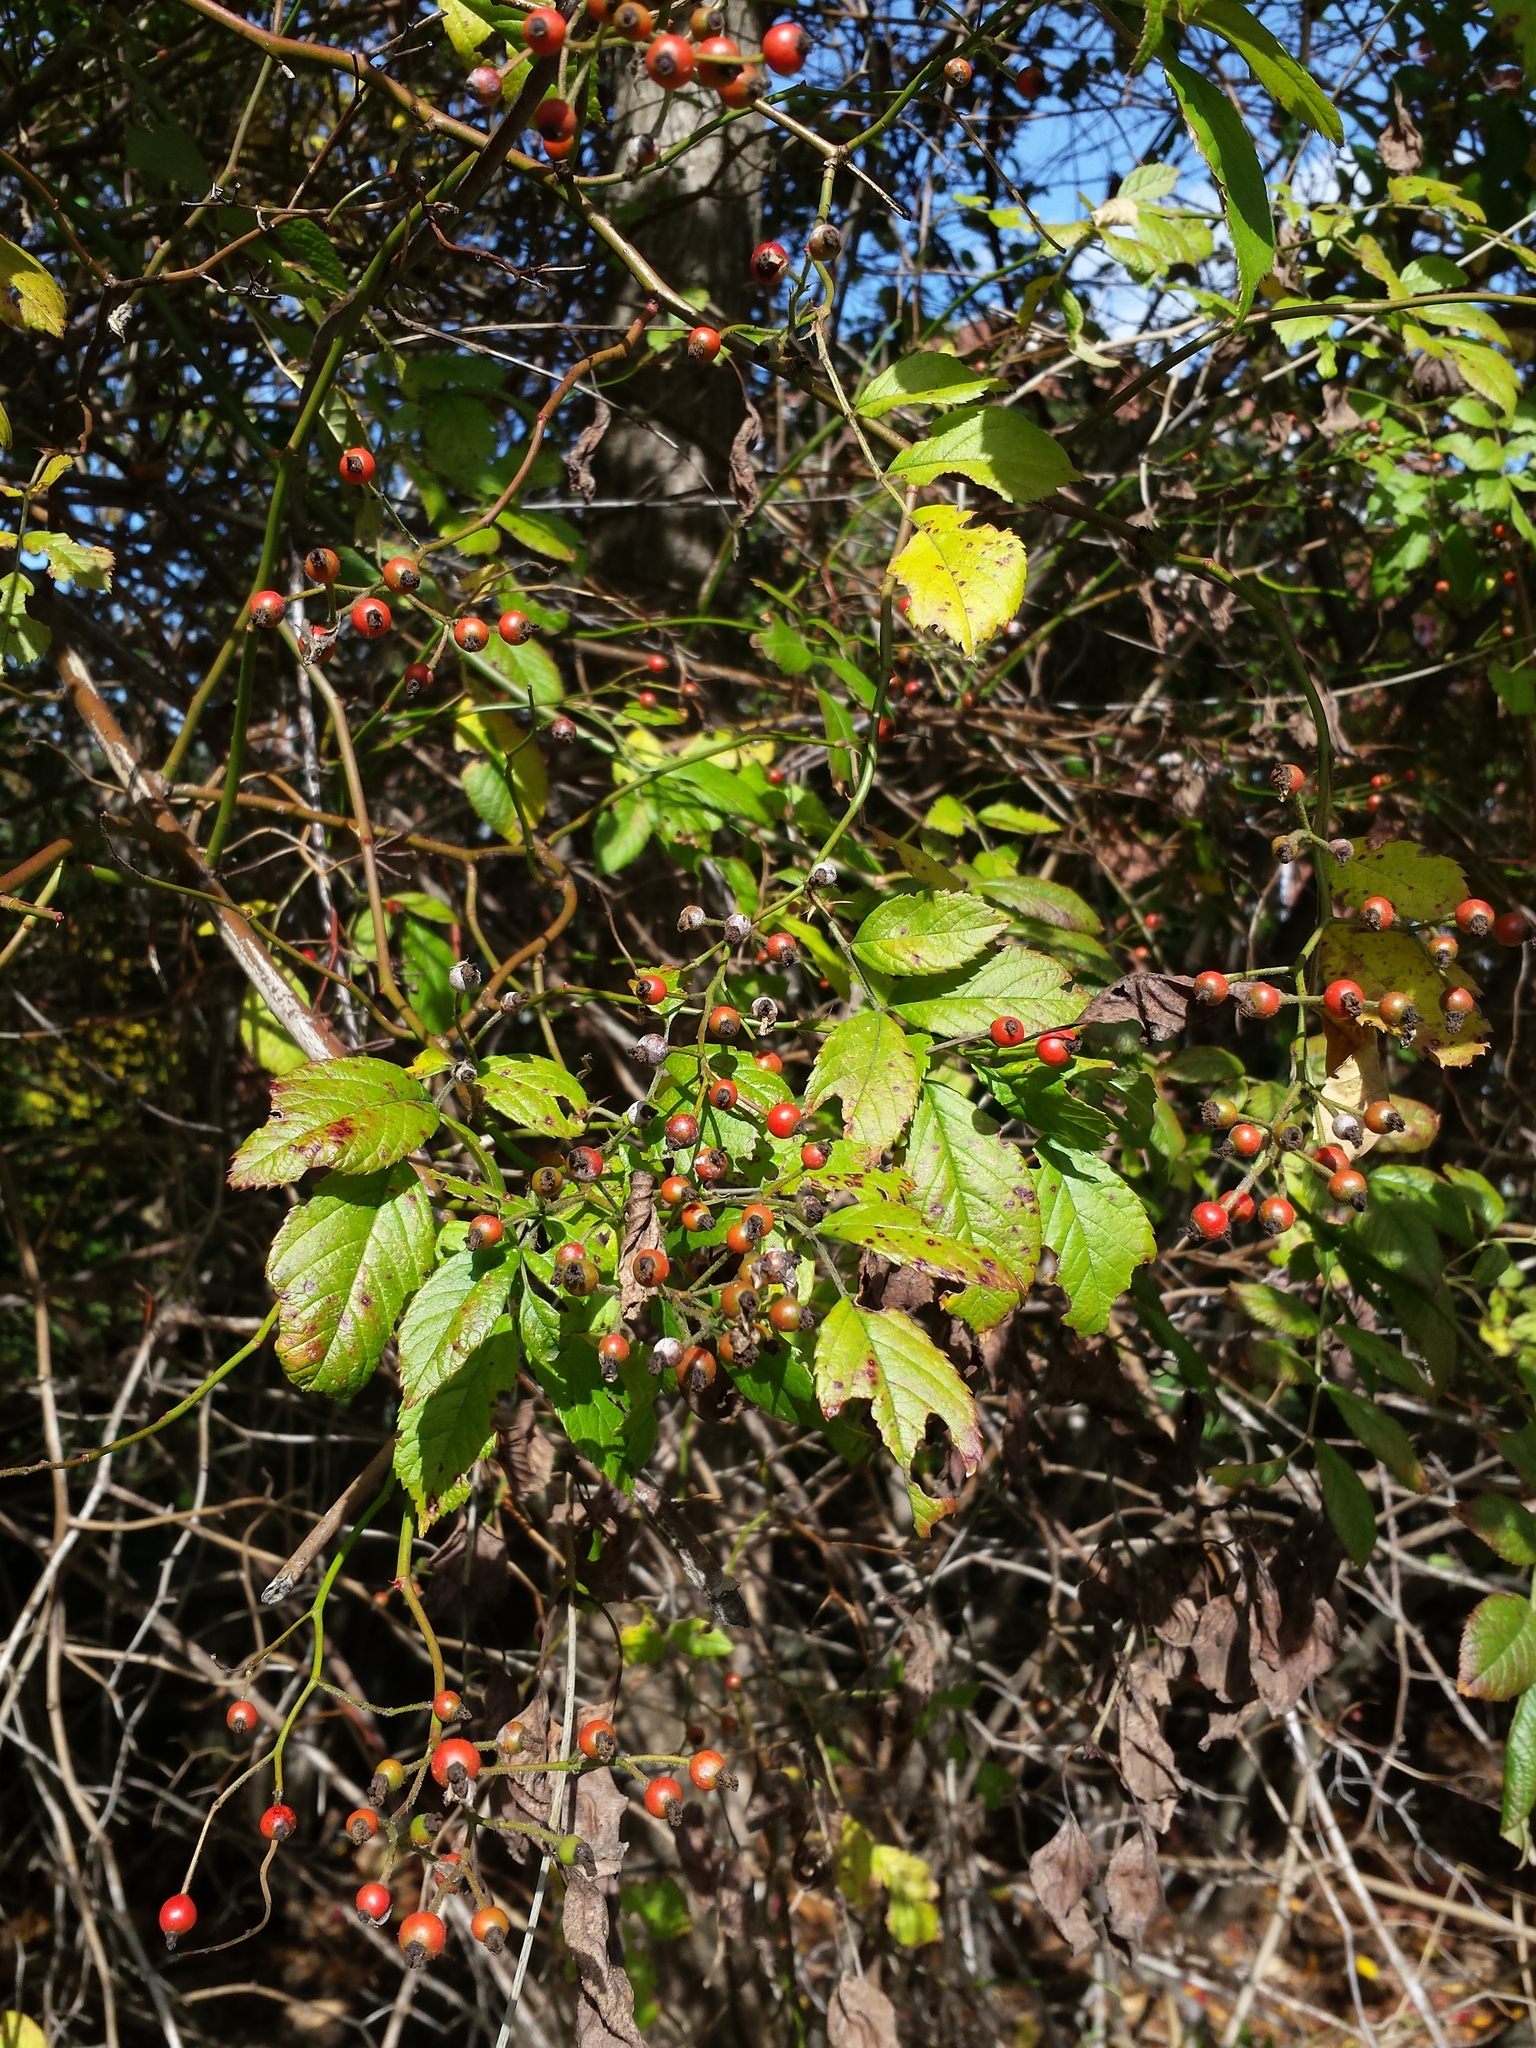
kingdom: Plantae
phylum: Tracheophyta
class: Magnoliopsida
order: Rosales
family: Rosaceae
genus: Rosa
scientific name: Rosa multiflora
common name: Multiflora rose
